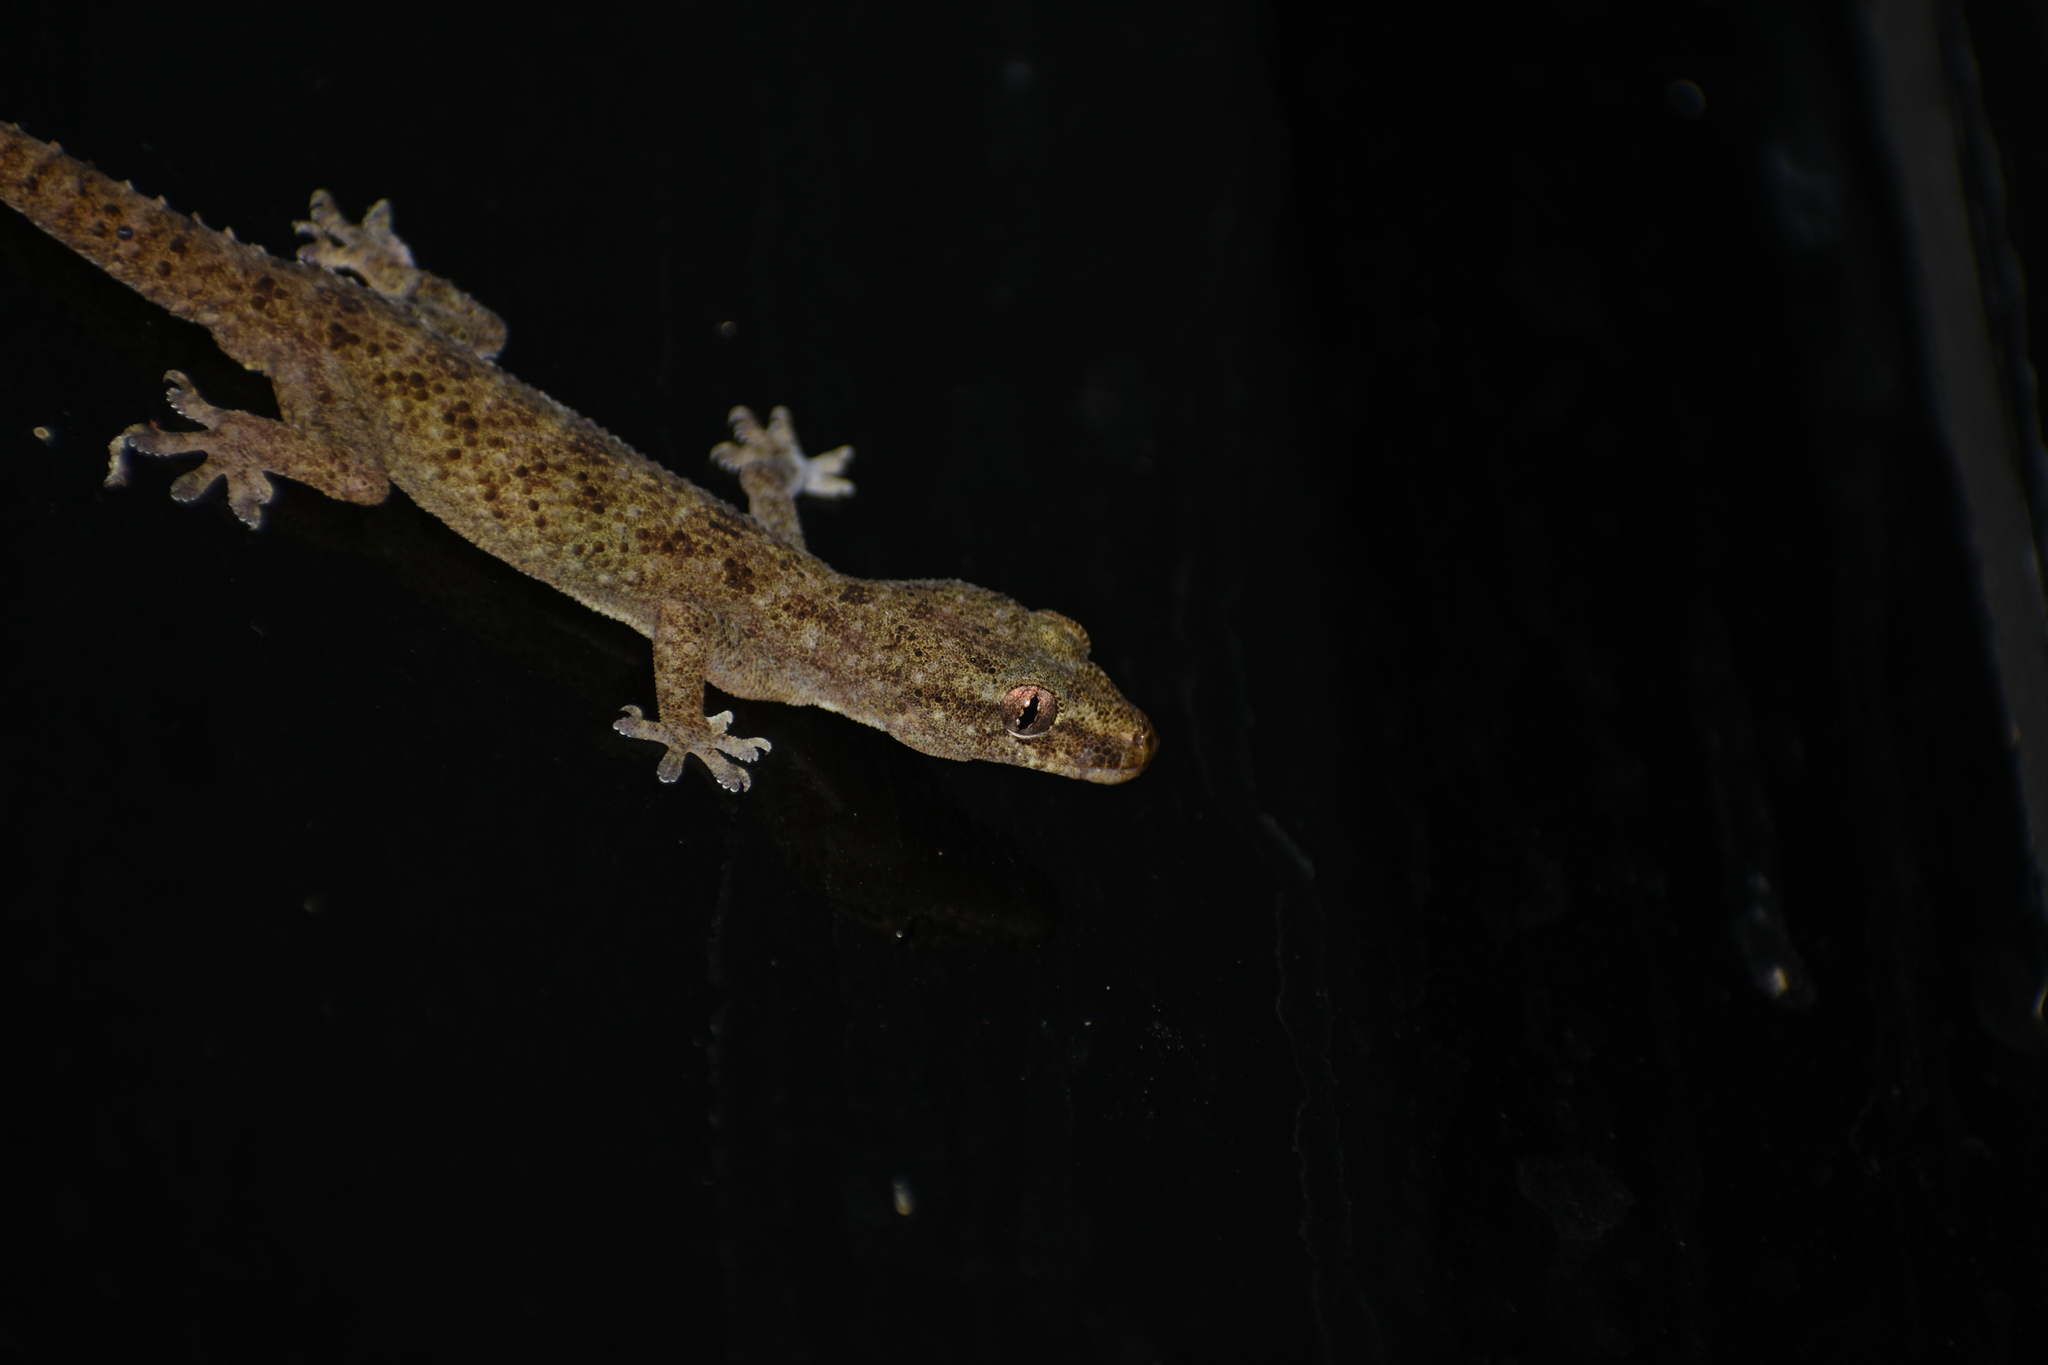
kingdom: Animalia
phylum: Chordata
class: Squamata
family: Gekkonidae
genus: Hemidactylus
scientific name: Hemidactylus brookii
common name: Brook's house gecko
